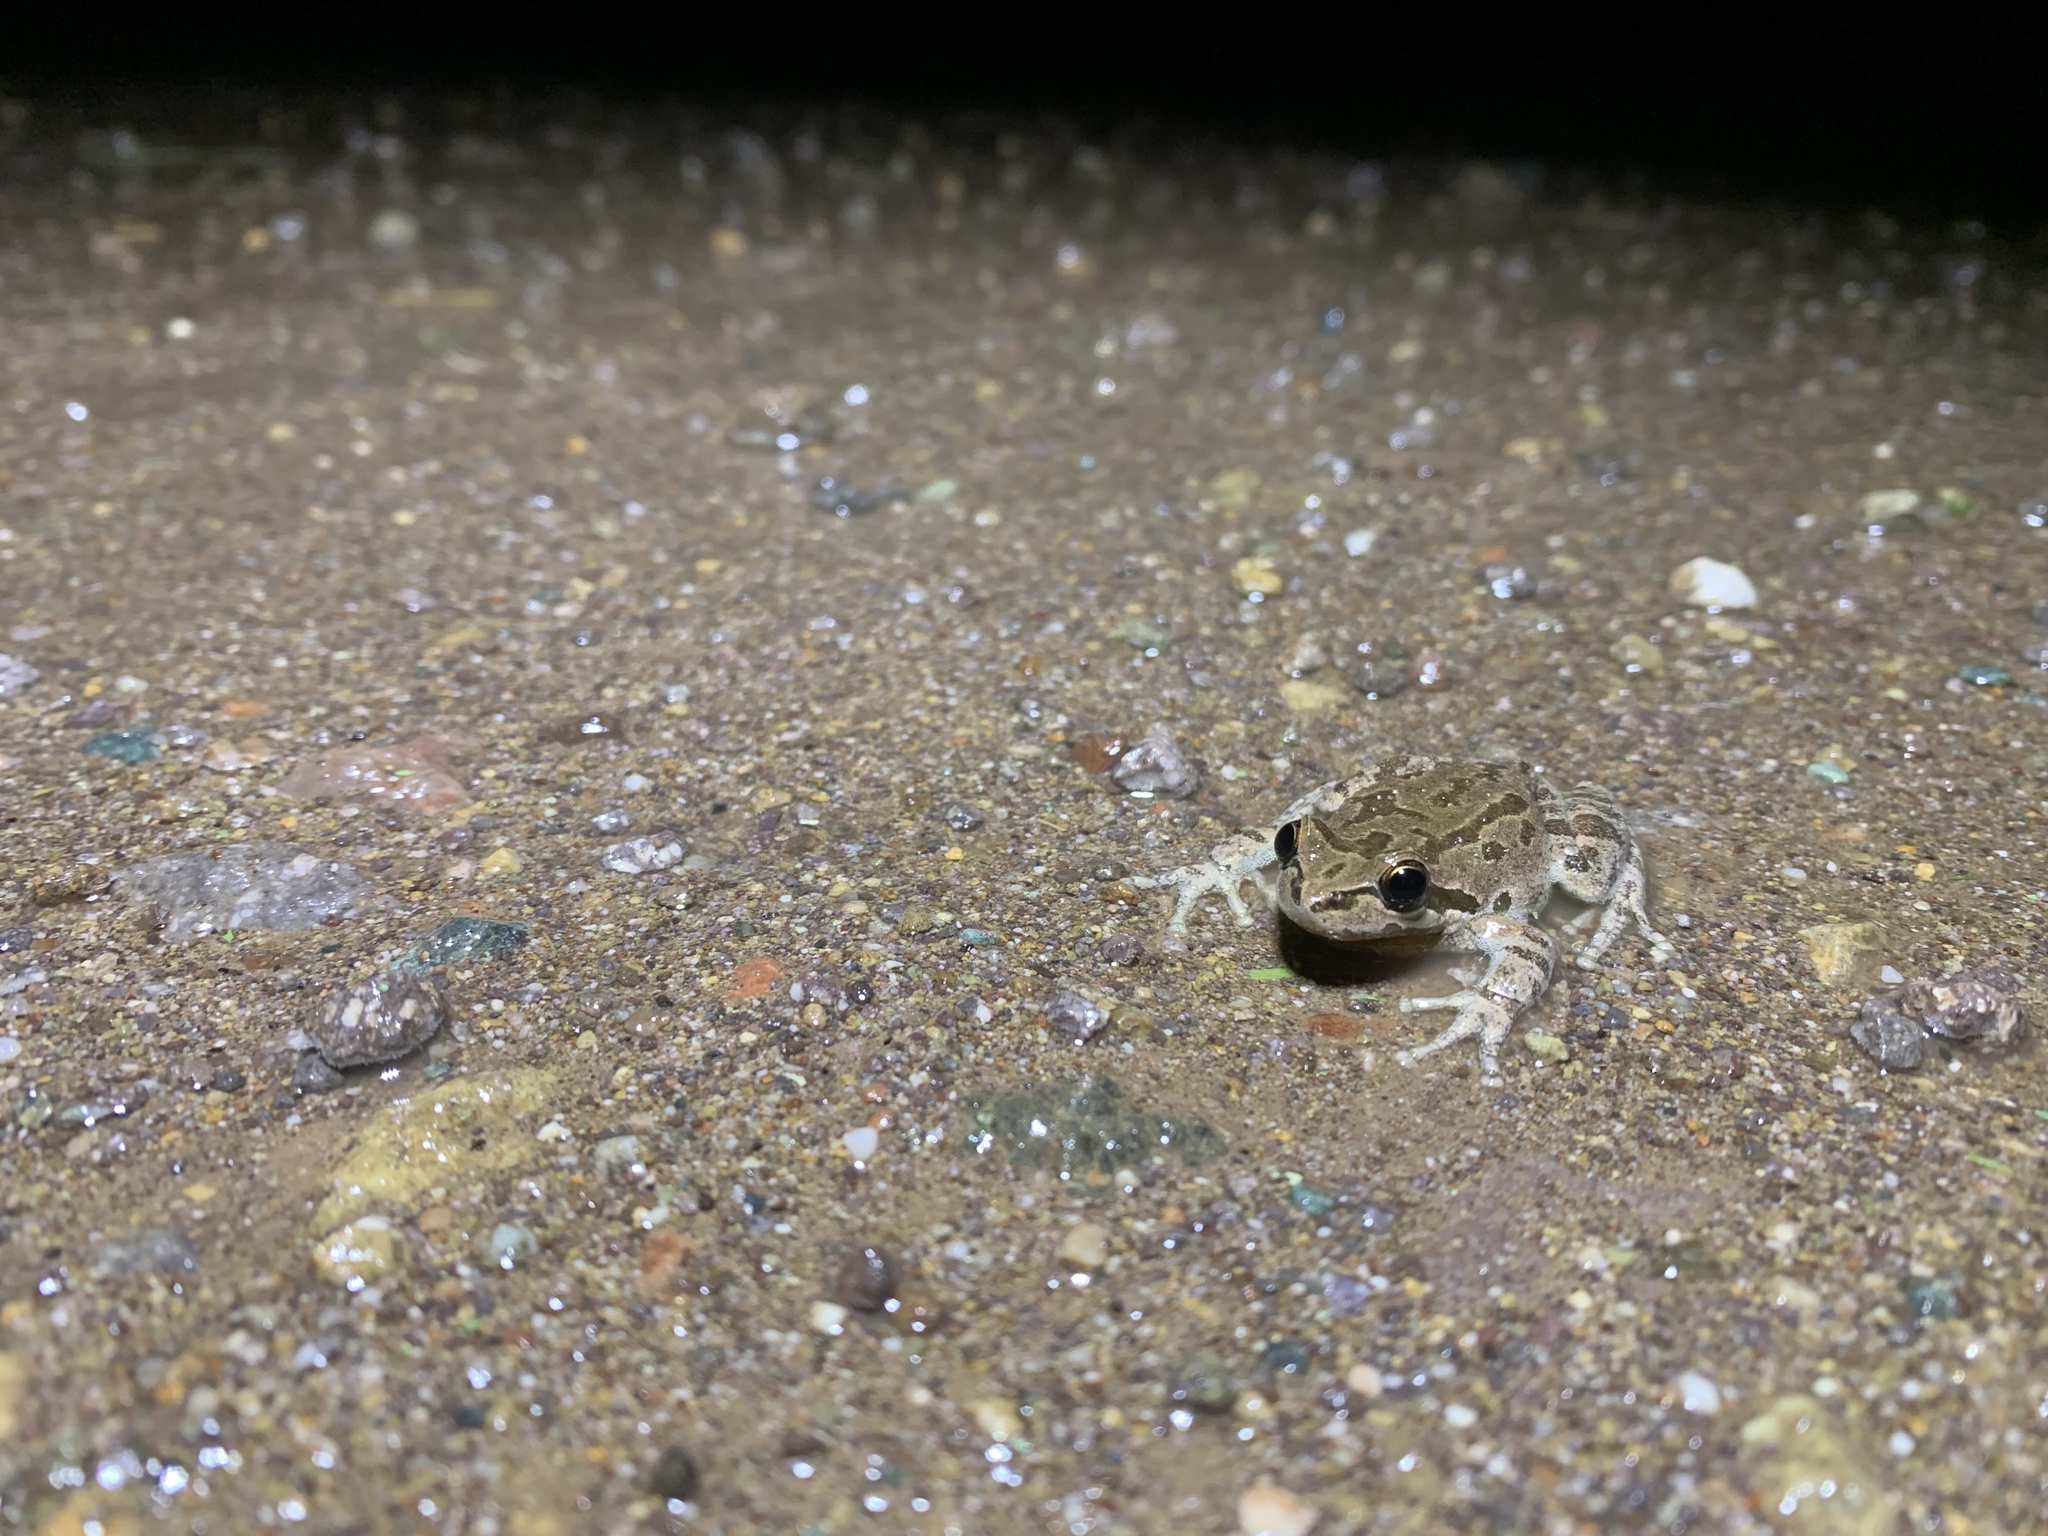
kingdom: Animalia
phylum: Chordata
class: Amphibia
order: Anura
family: Hylidae
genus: Pseudacris
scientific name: Pseudacris regilla
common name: Pacific chorus frog
